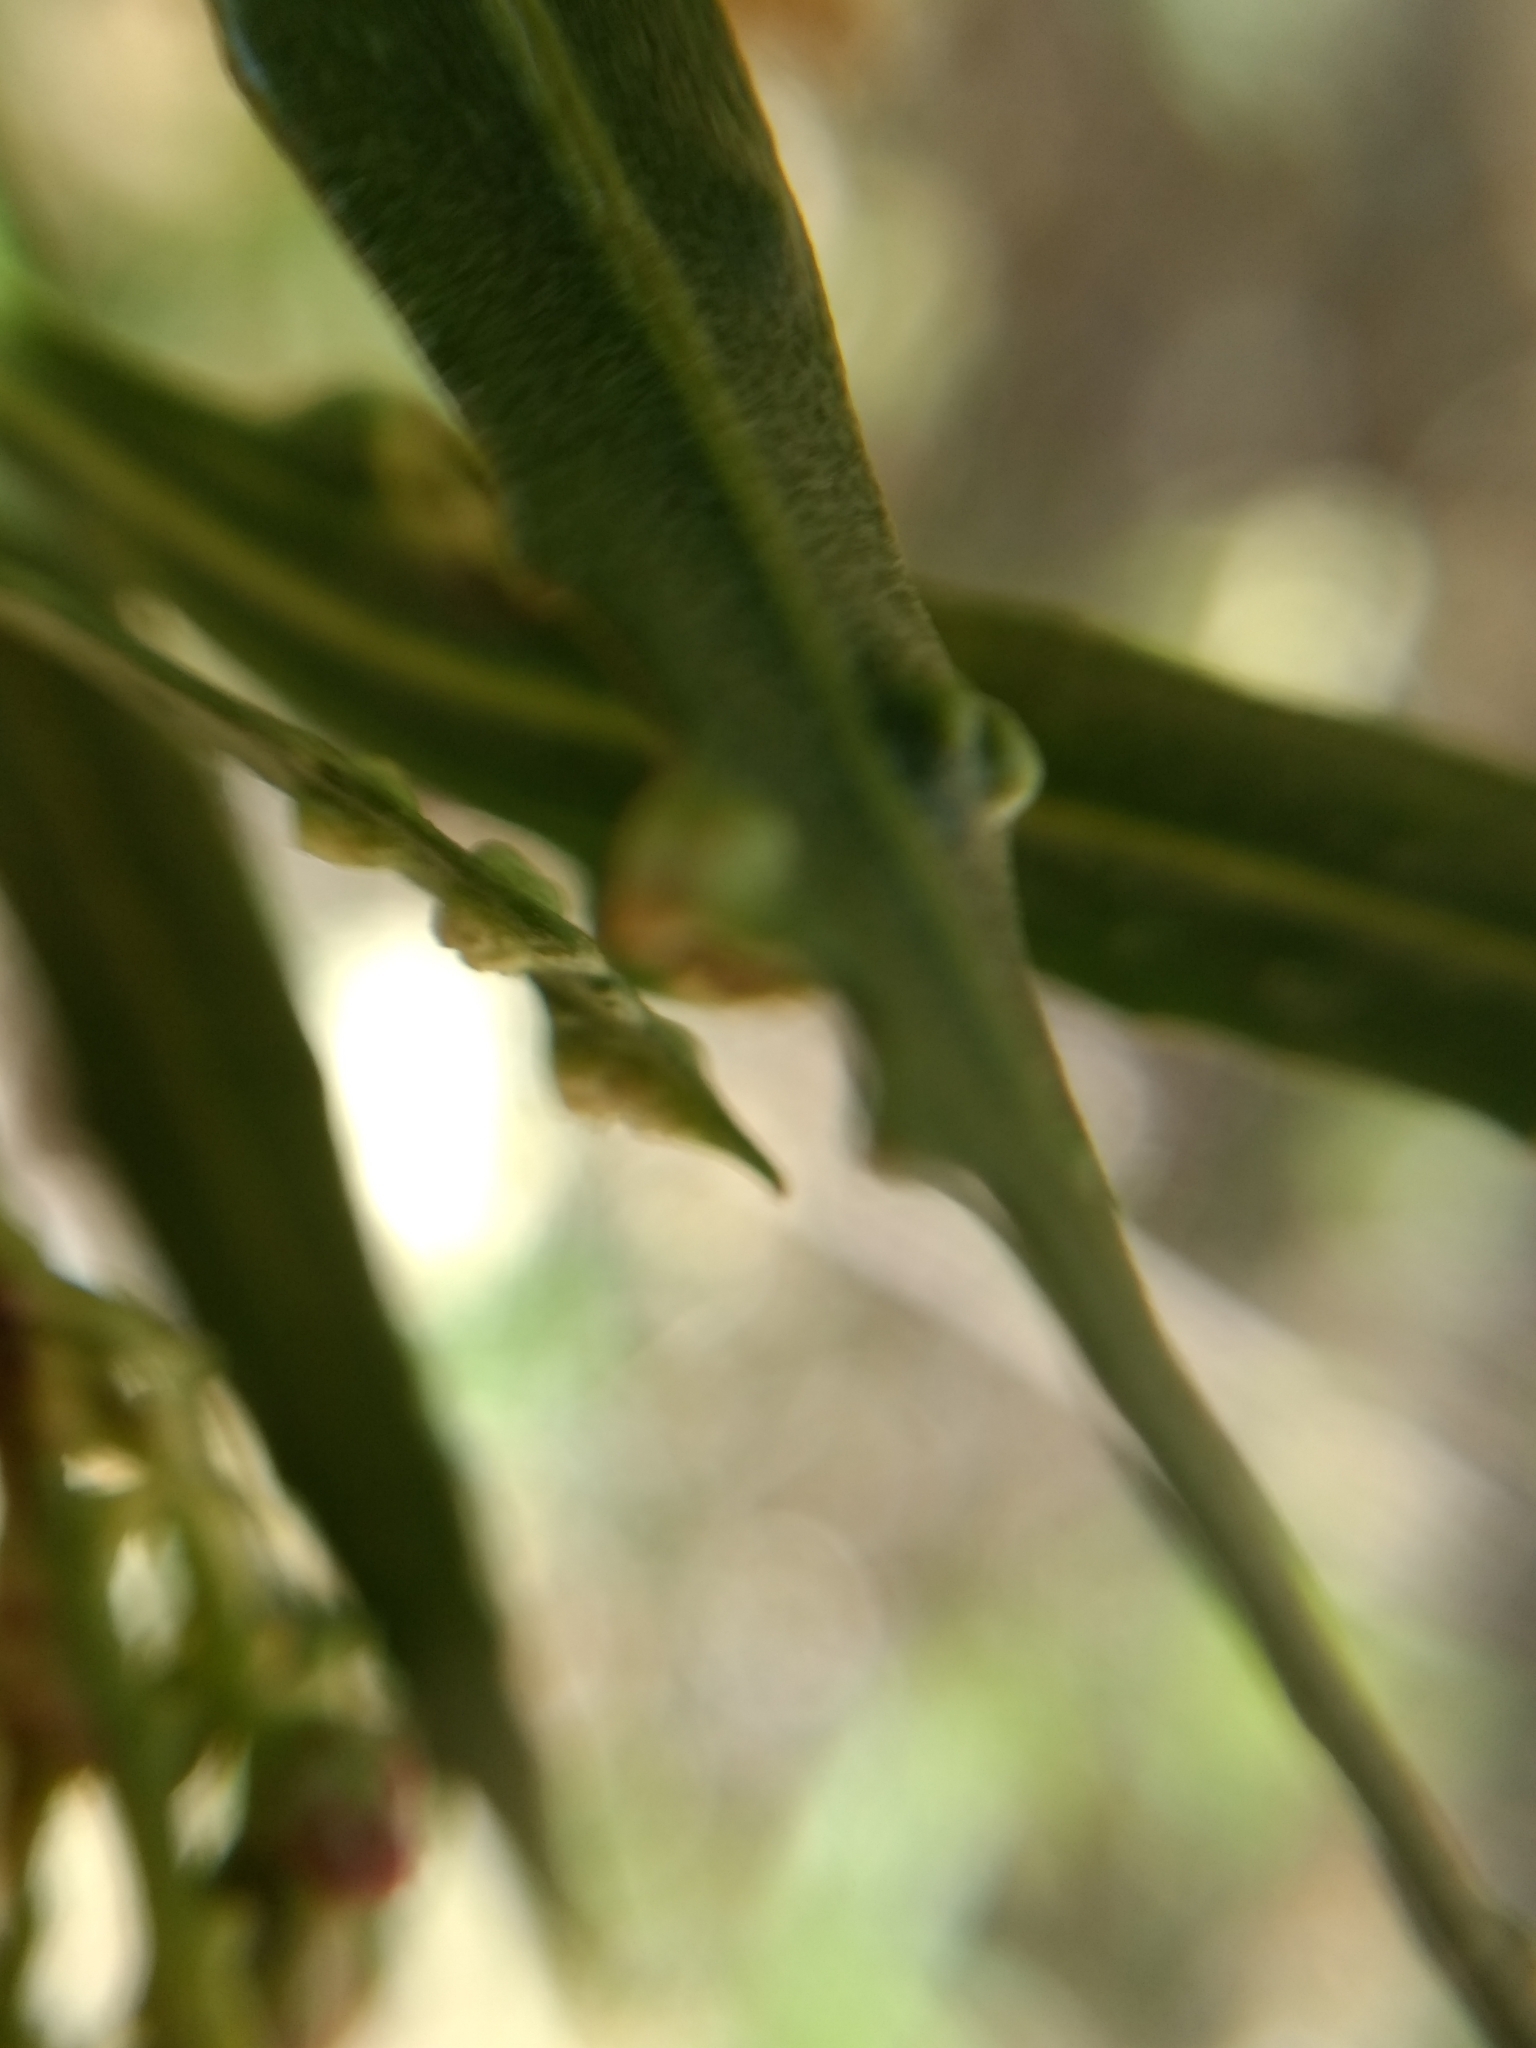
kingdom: Animalia
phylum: Arthropoda
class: Arachnida
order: Trombidiformes
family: Eriophyidae
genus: Aceria
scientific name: Aceria
